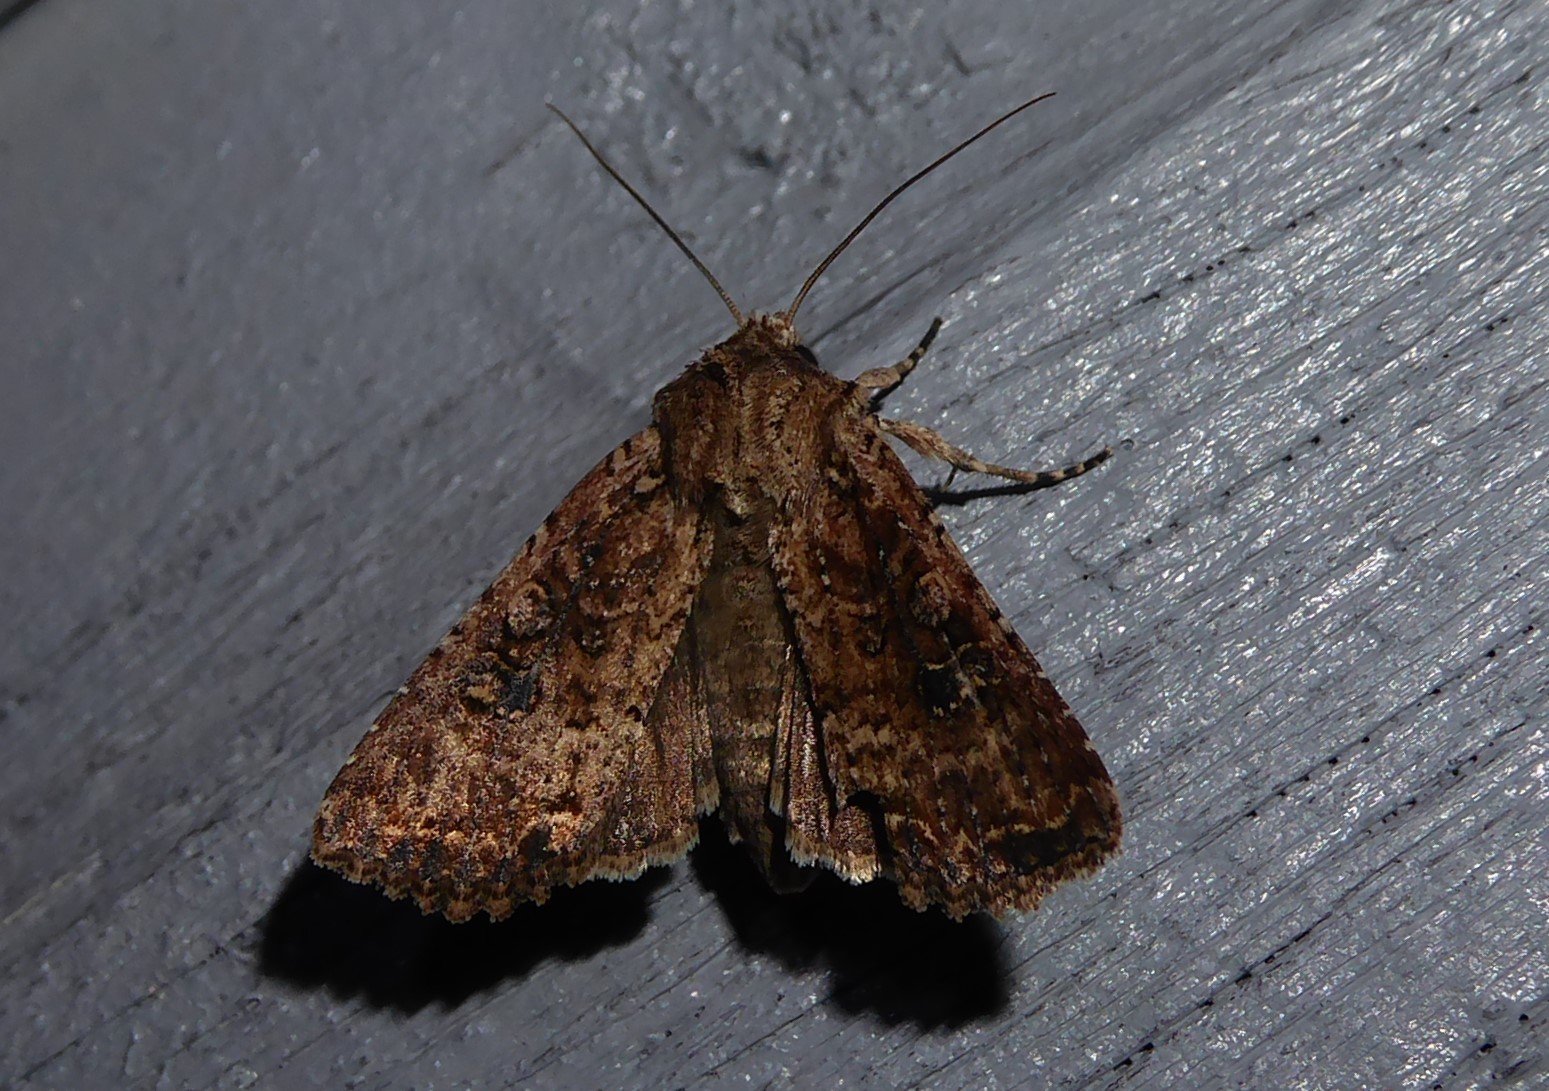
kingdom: Animalia
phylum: Arthropoda
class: Insecta
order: Lepidoptera
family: Noctuidae
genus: Ichneutica
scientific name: Ichneutica morosa
